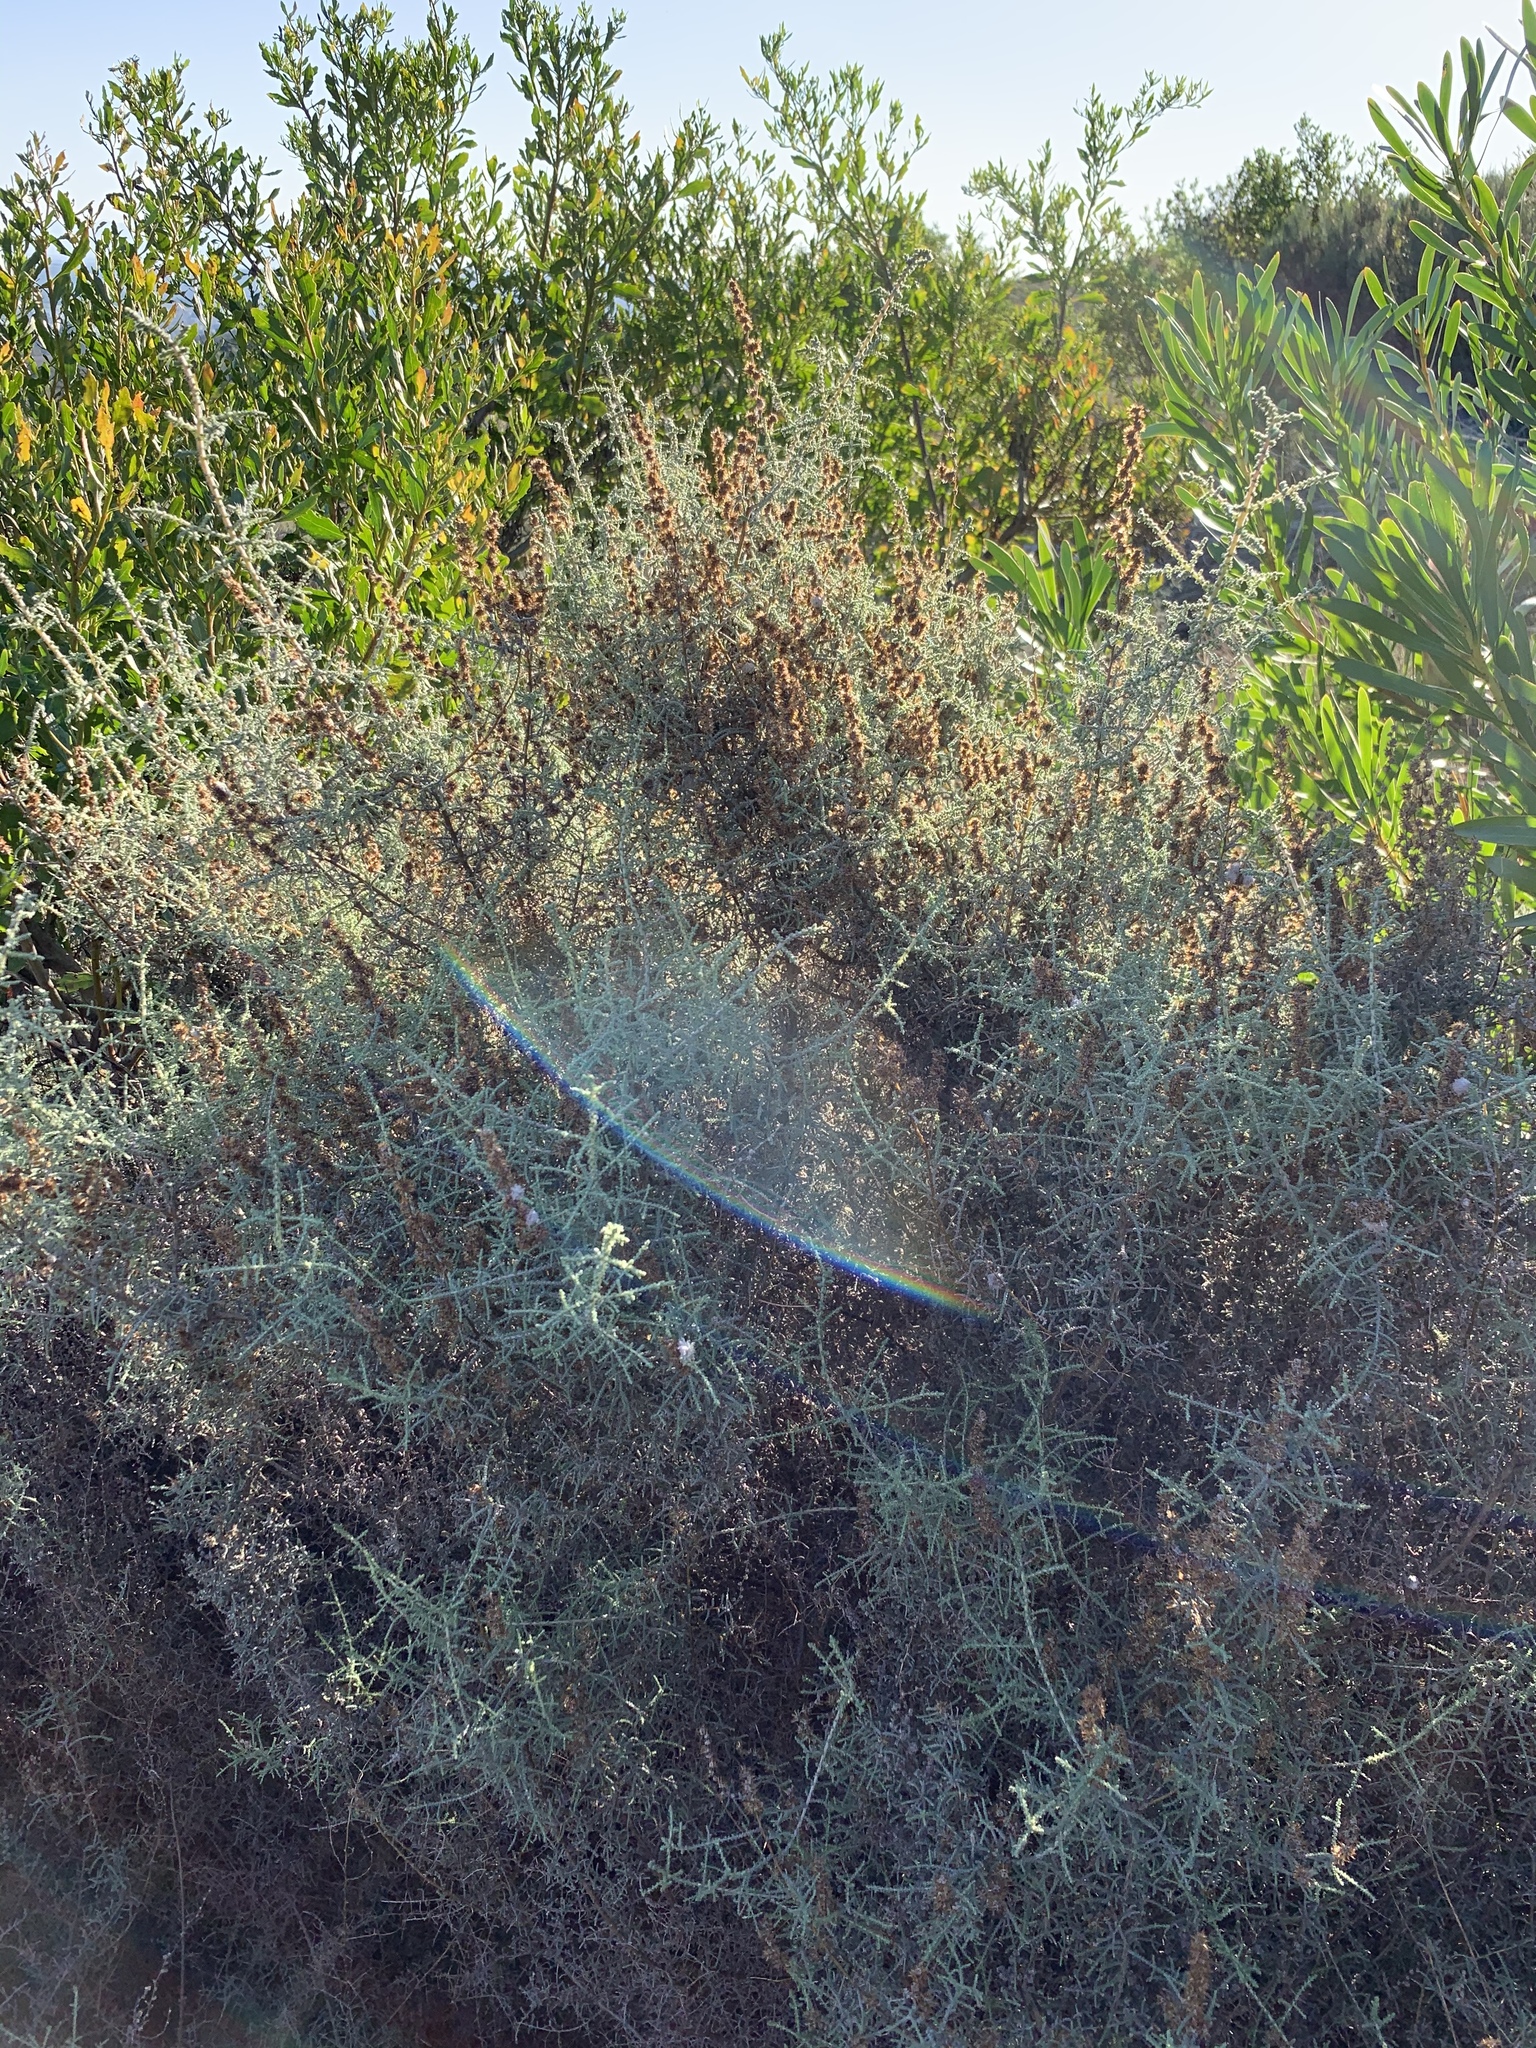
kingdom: Plantae
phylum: Tracheophyta
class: Magnoliopsida
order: Asterales
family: Asteraceae
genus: Seriphium
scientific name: Seriphium plumosum
